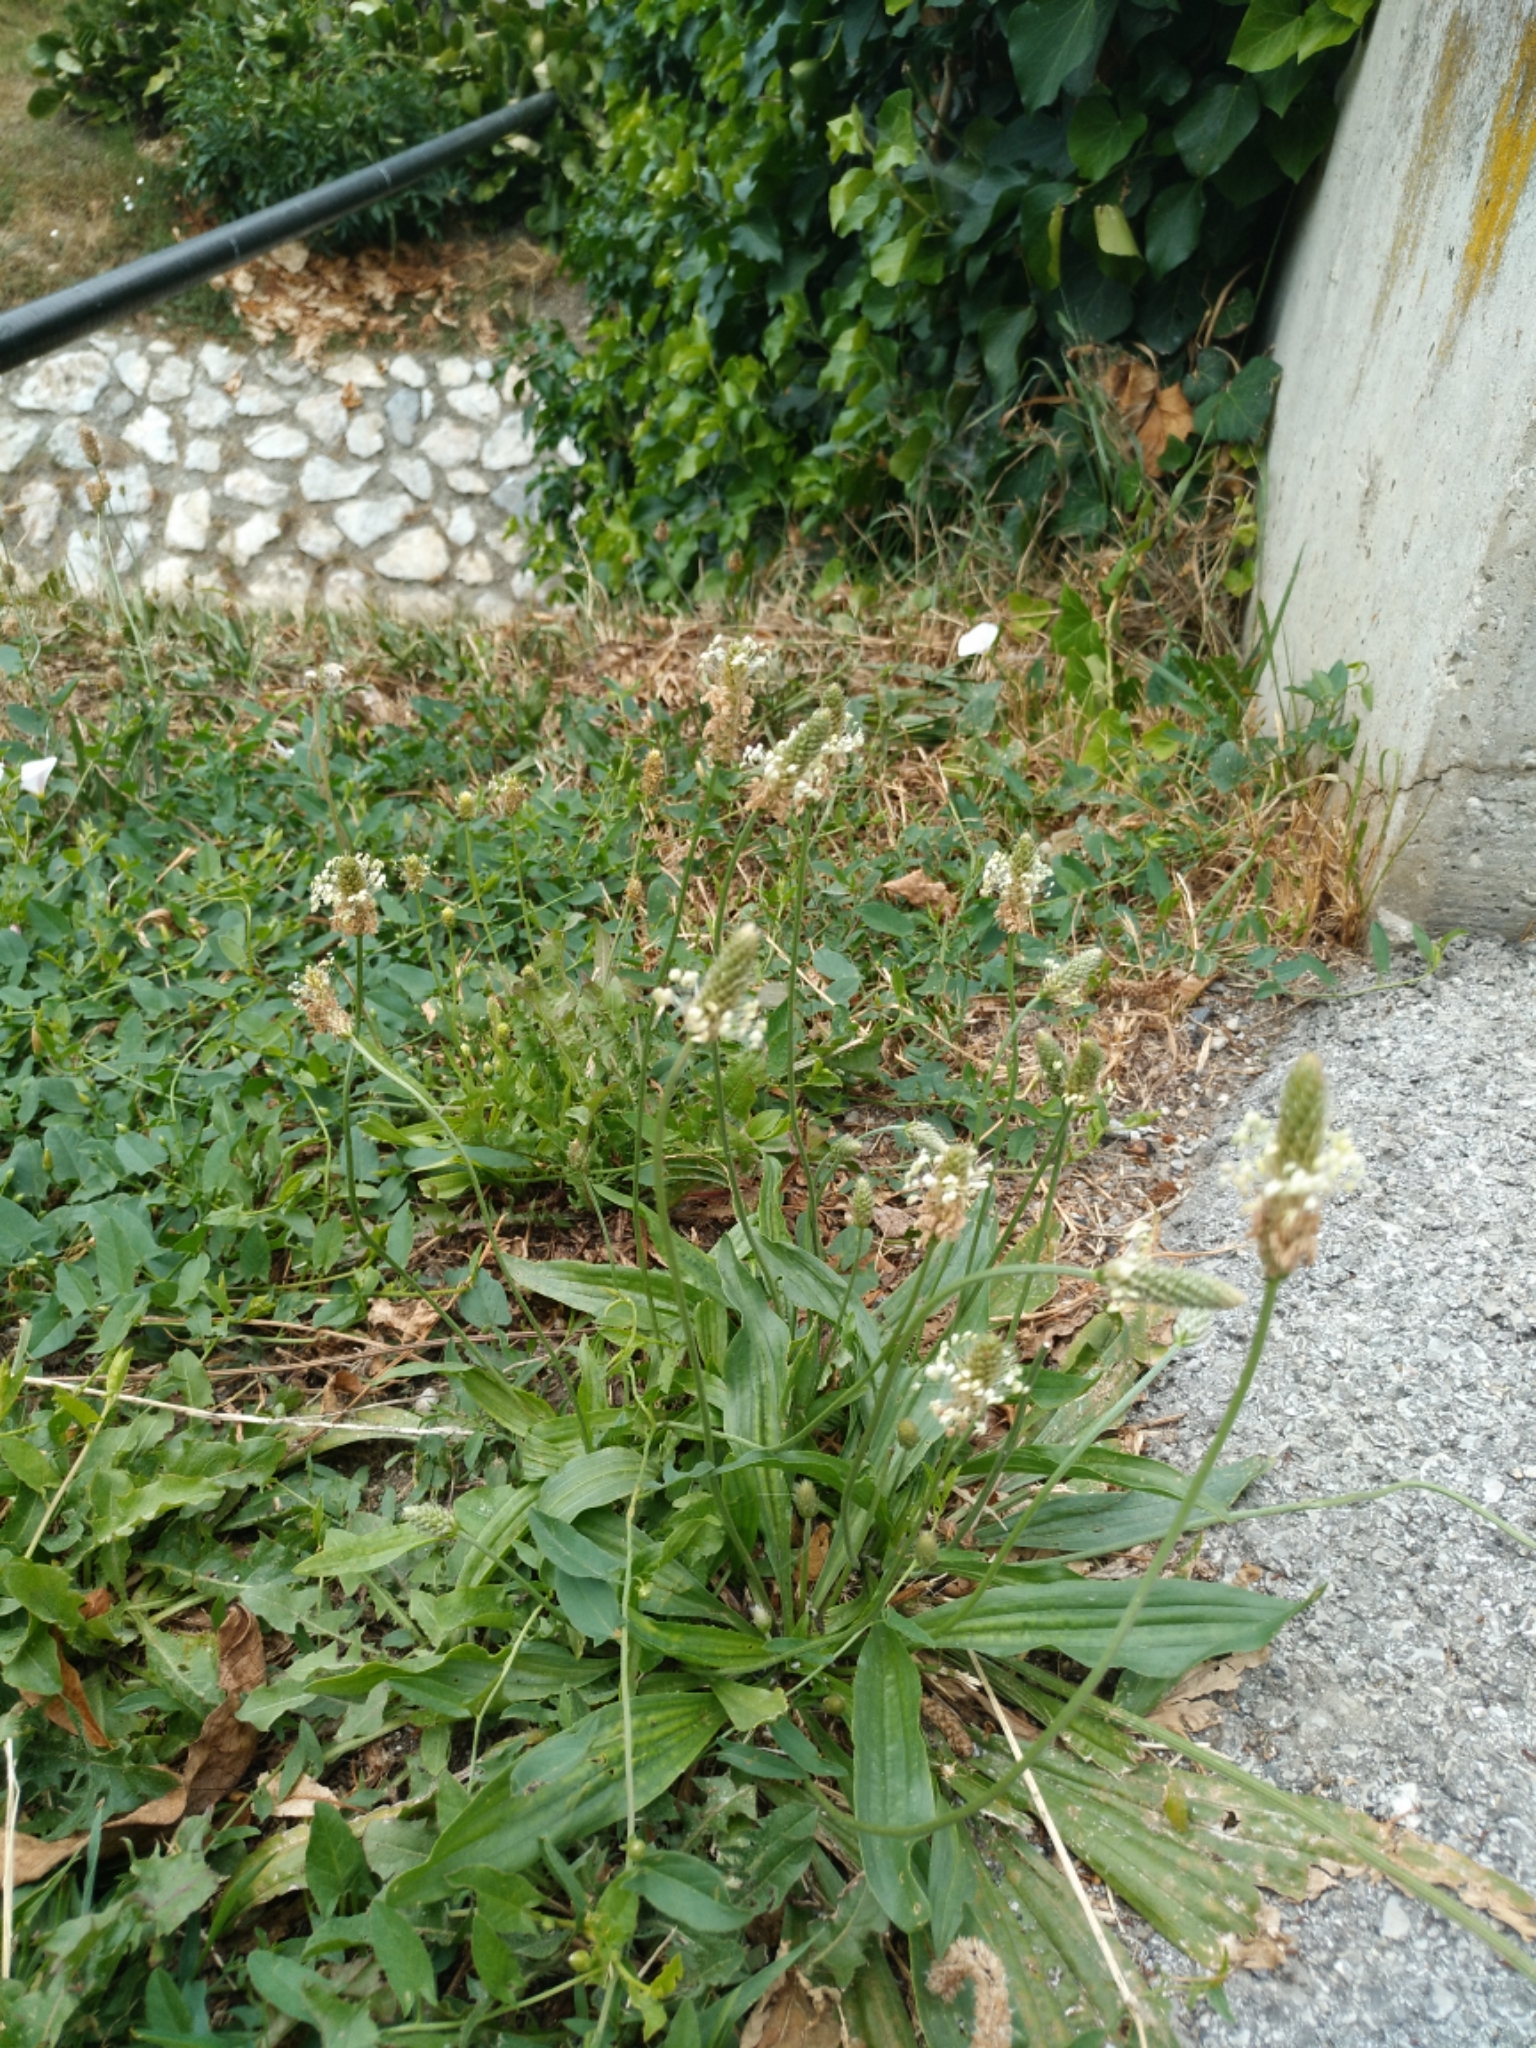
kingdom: Plantae
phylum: Tracheophyta
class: Magnoliopsida
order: Lamiales
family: Plantaginaceae
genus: Plantago
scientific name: Plantago lanceolata
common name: Ribwort plantain
